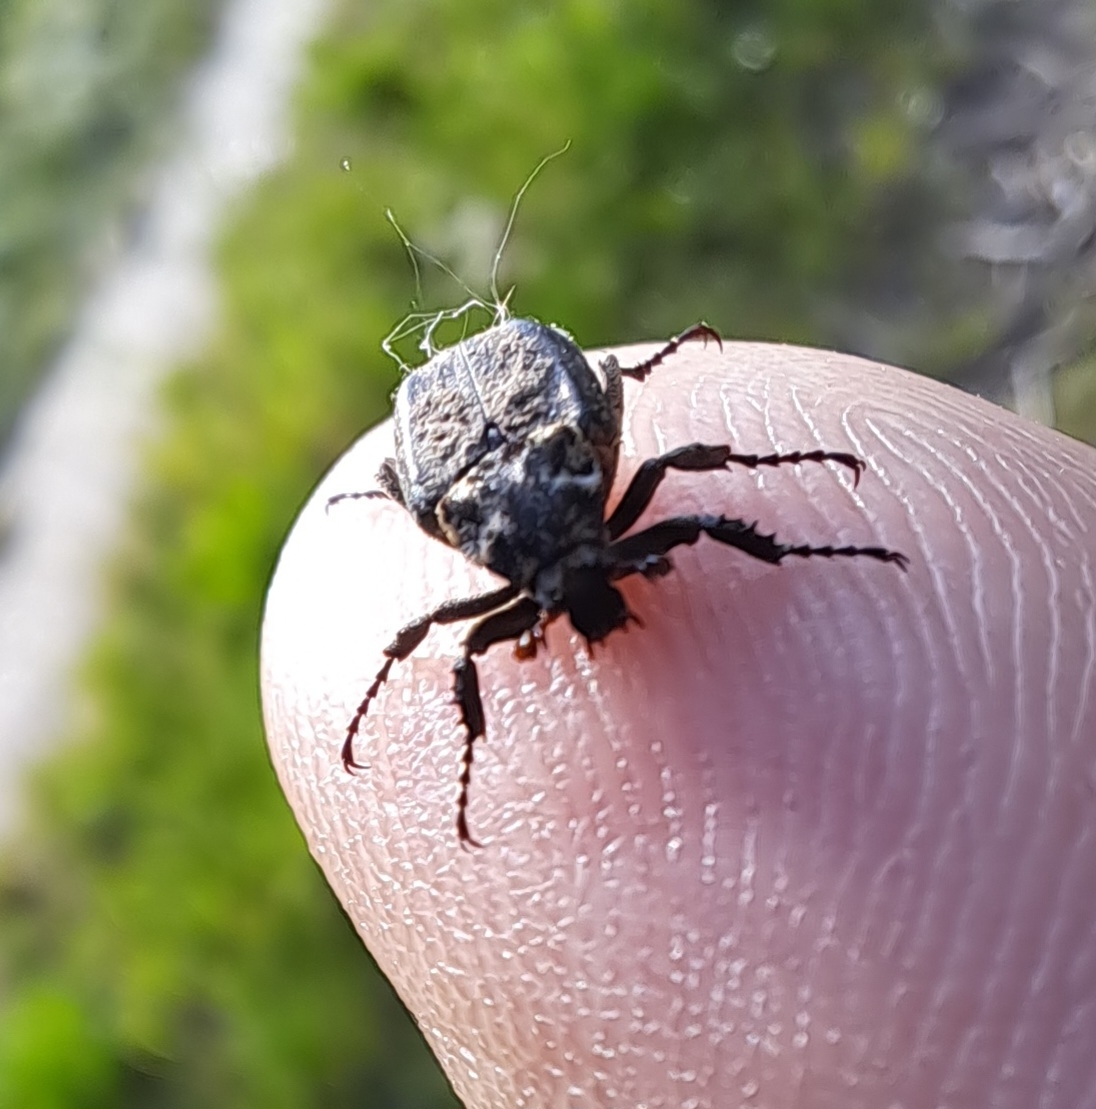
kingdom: Animalia
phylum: Arthropoda
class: Insecta
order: Coleoptera
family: Scarabaeidae
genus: Valgus
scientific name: Valgus hemipterus
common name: Bug flower chafer
